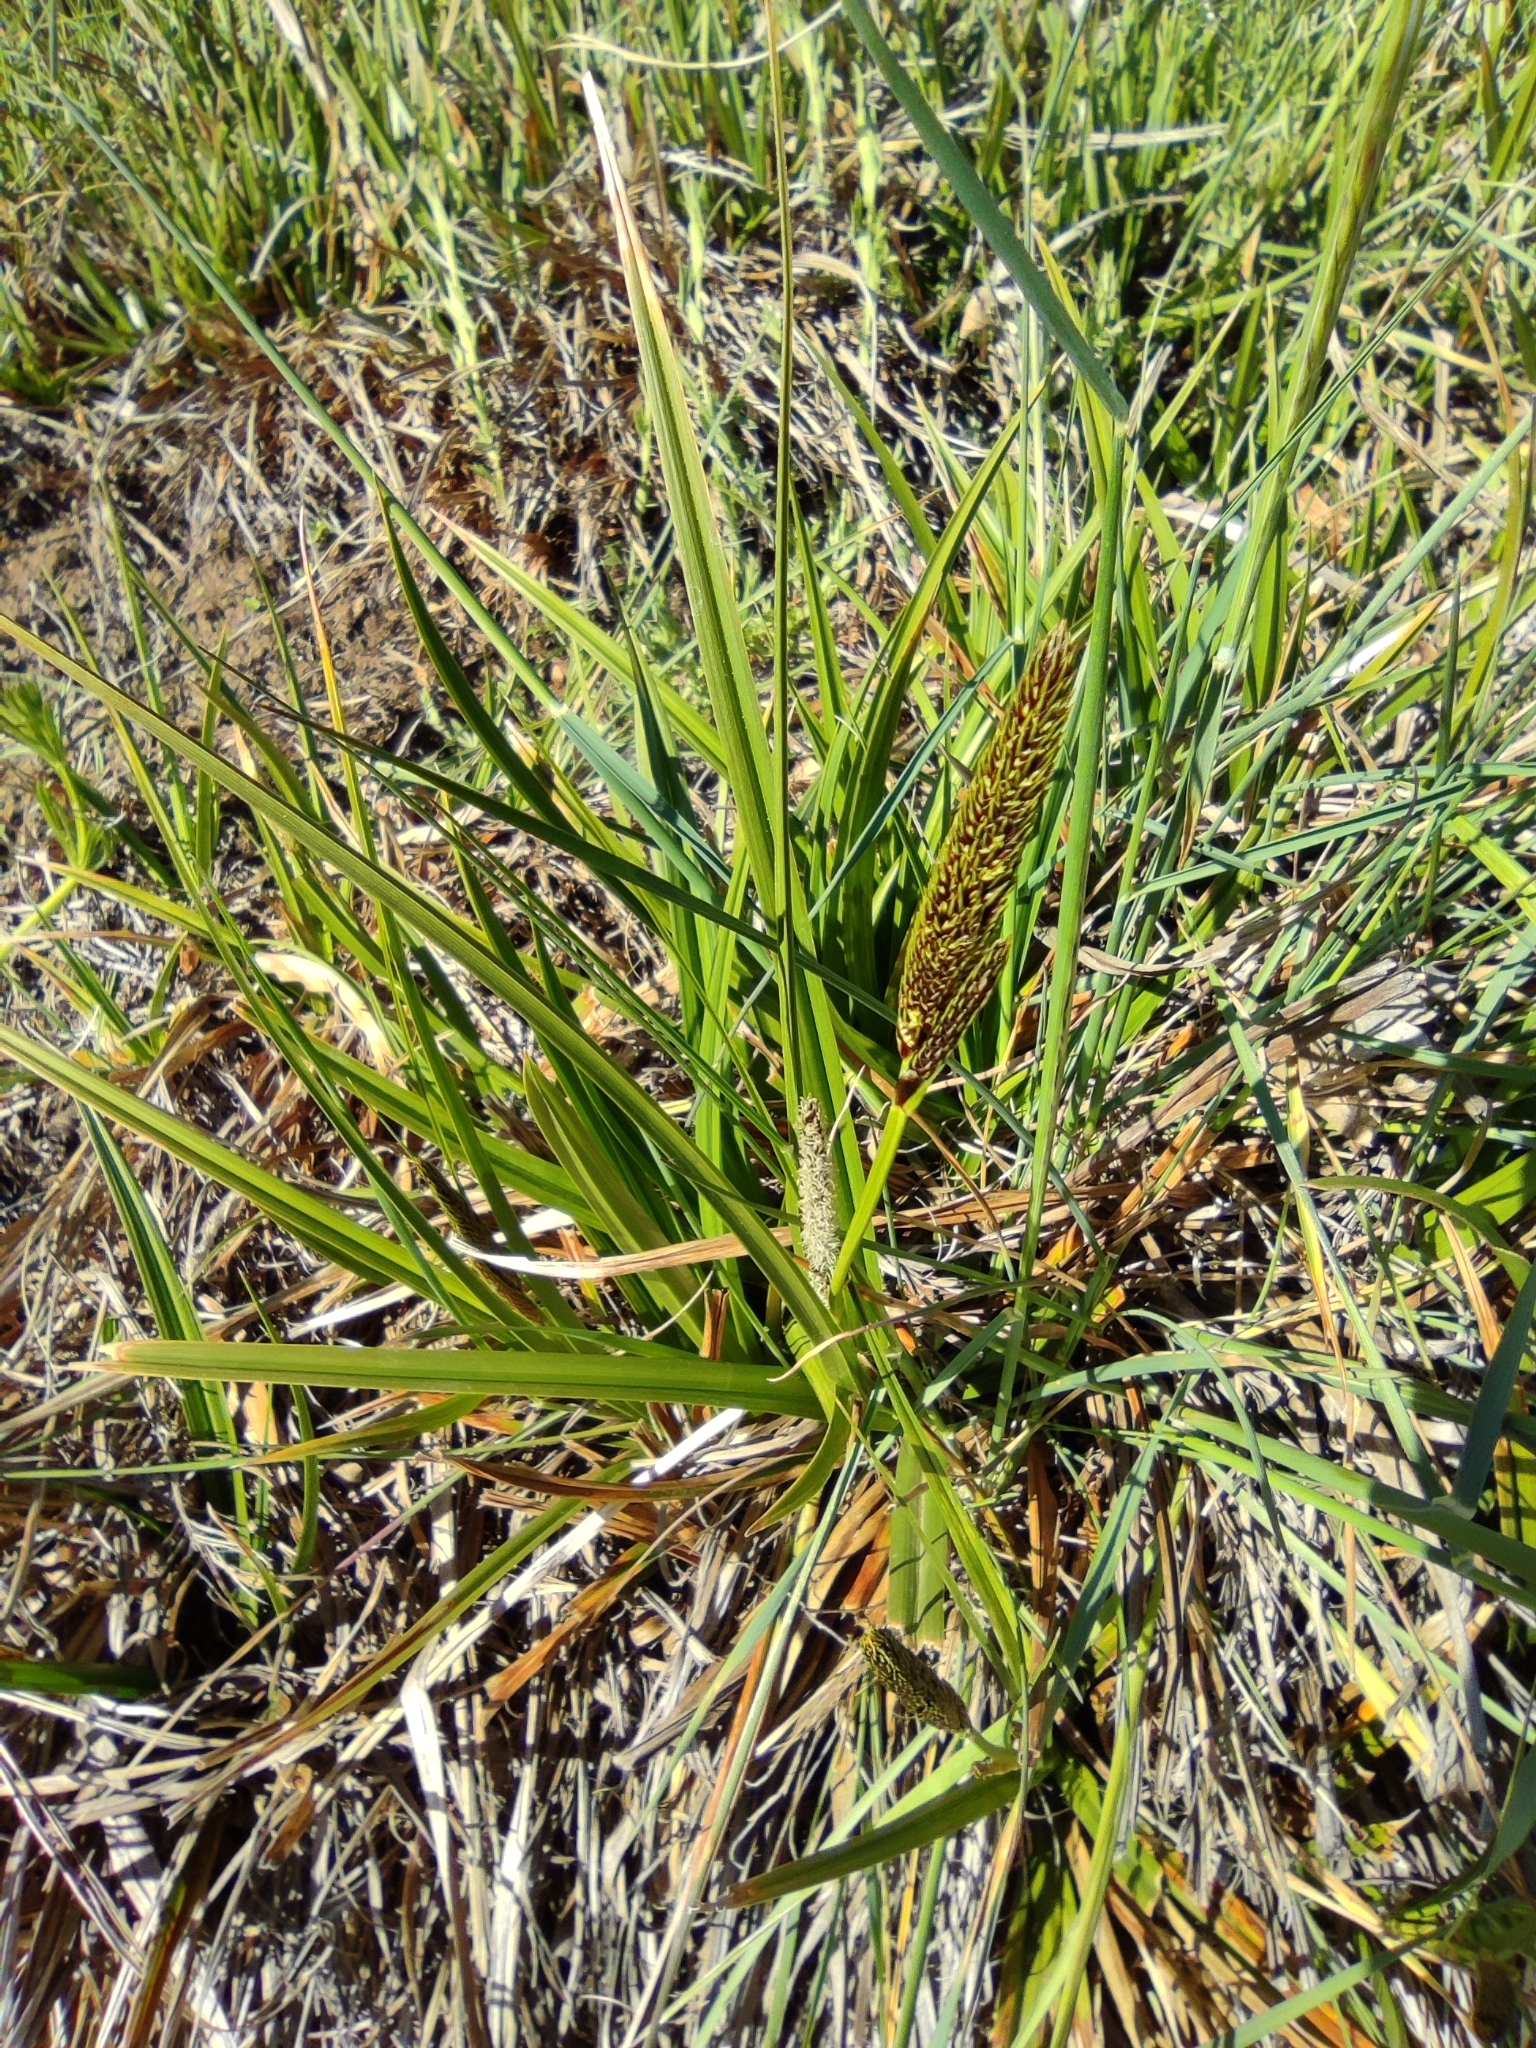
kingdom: Plantae
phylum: Tracheophyta
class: Liliopsida
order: Poales
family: Cyperaceae
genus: Carex
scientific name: Carex camposii
